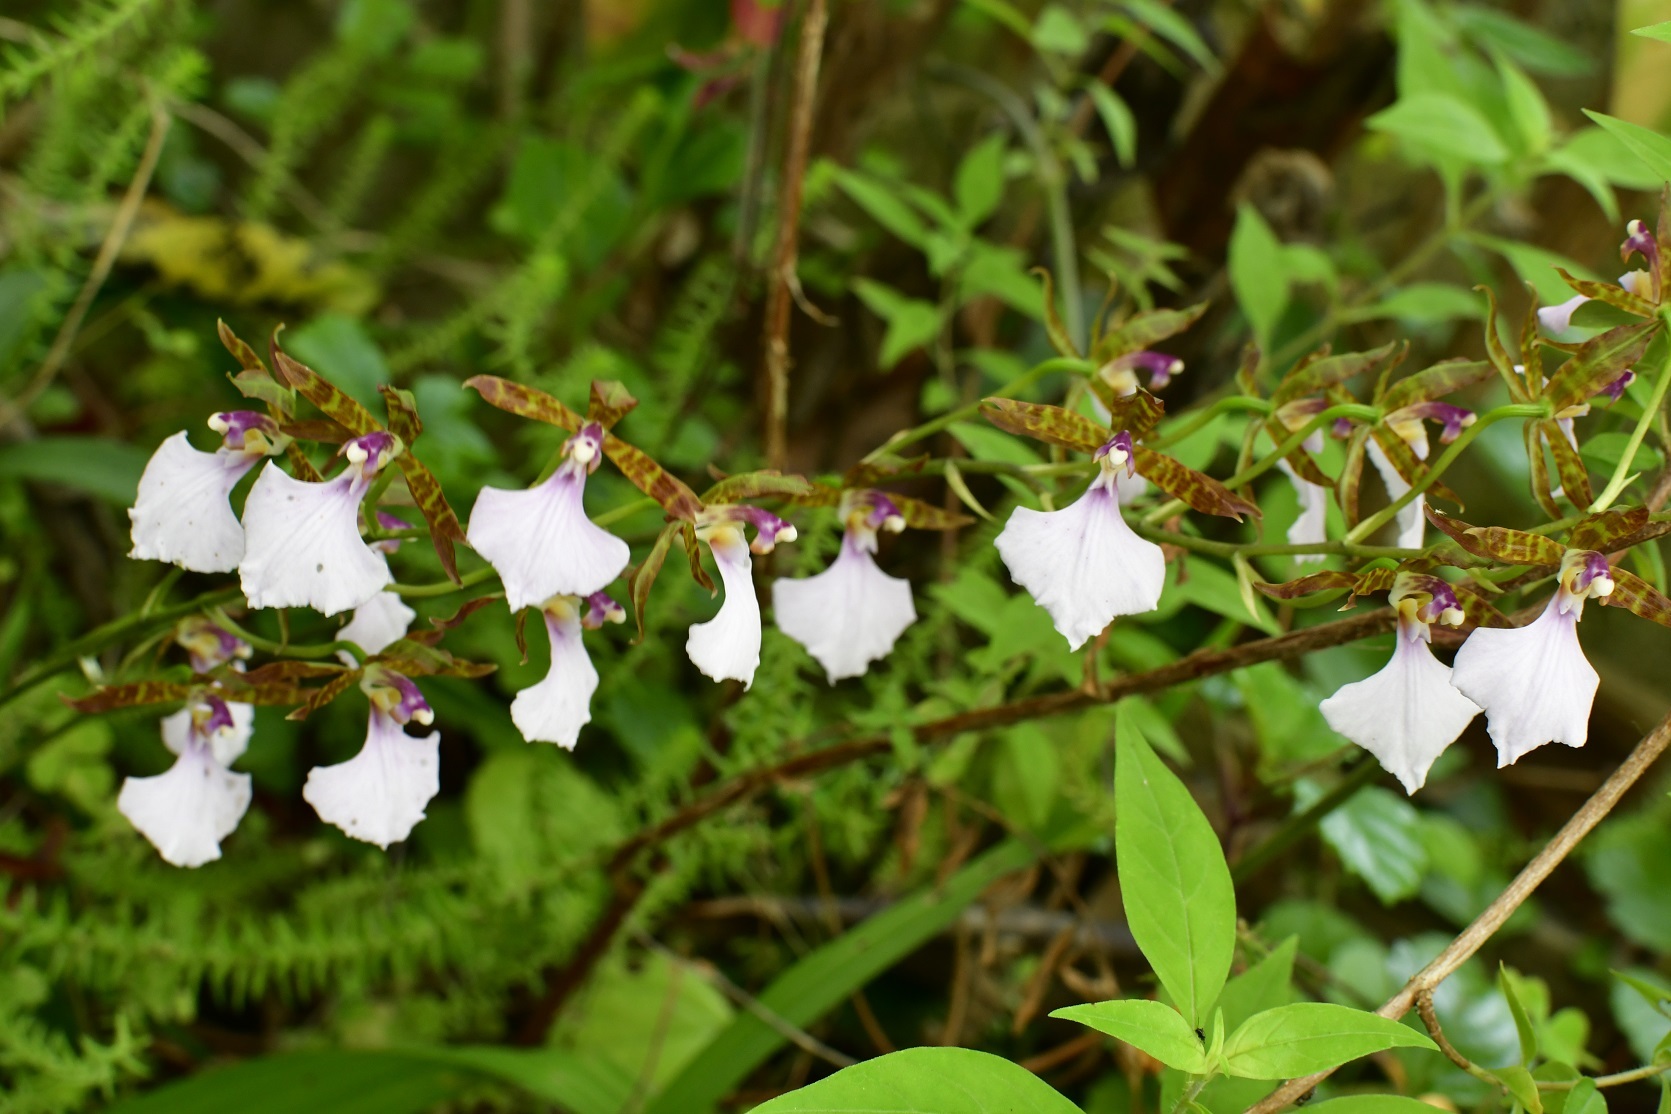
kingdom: Plantae
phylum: Tracheophyta
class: Liliopsida
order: Asparagales
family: Orchidaceae
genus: Rhynchostele
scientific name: Rhynchostele bictoniensis
